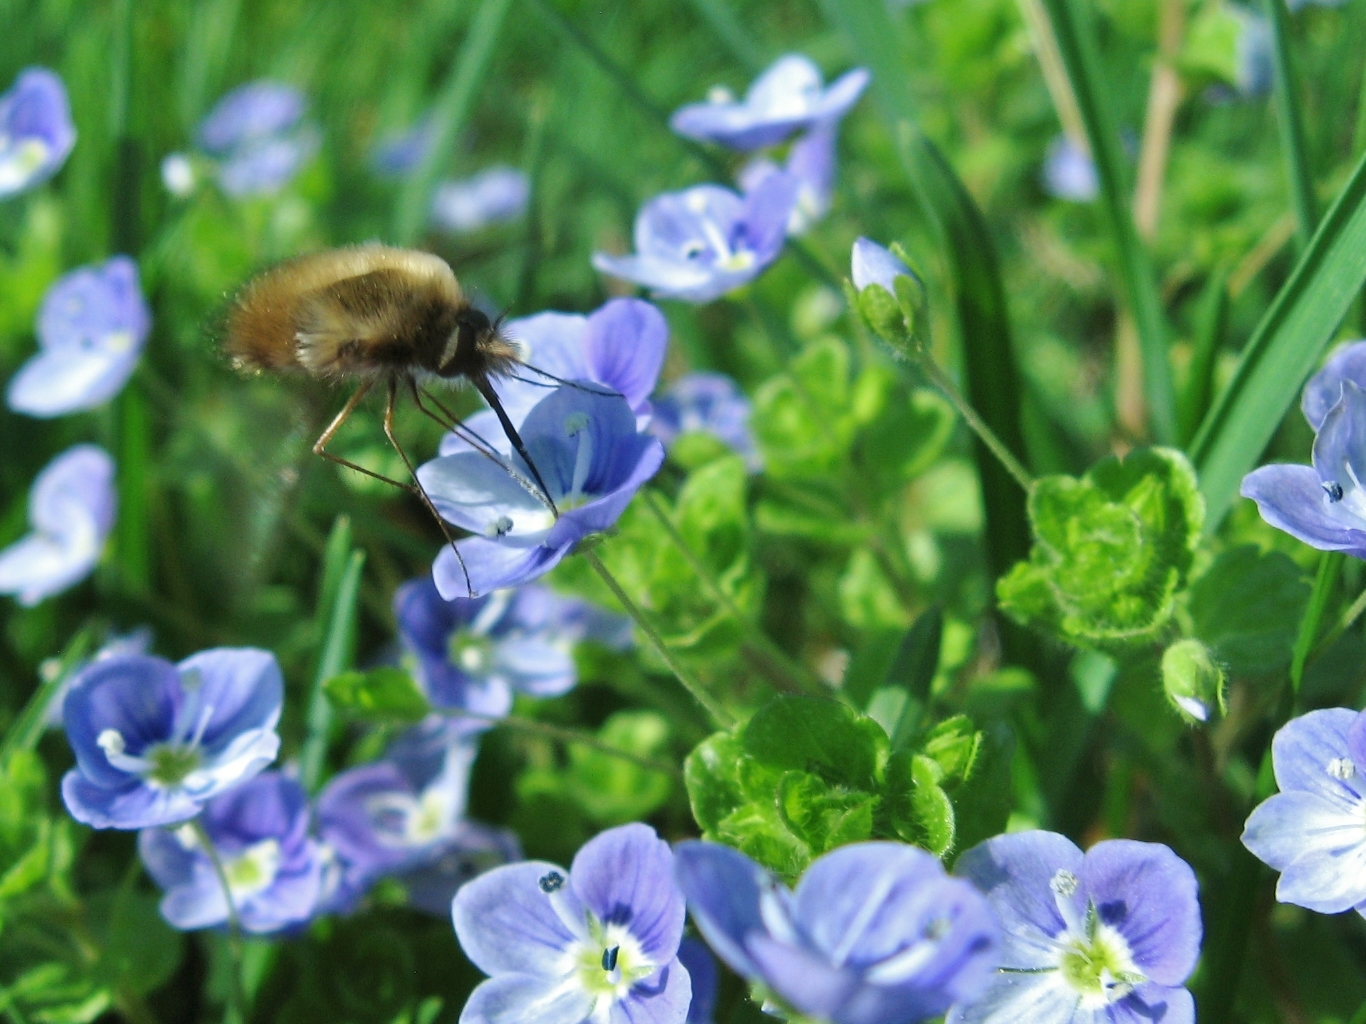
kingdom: Animalia
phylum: Arthropoda
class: Insecta
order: Diptera
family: Bombyliidae
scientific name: Bombyliidae
